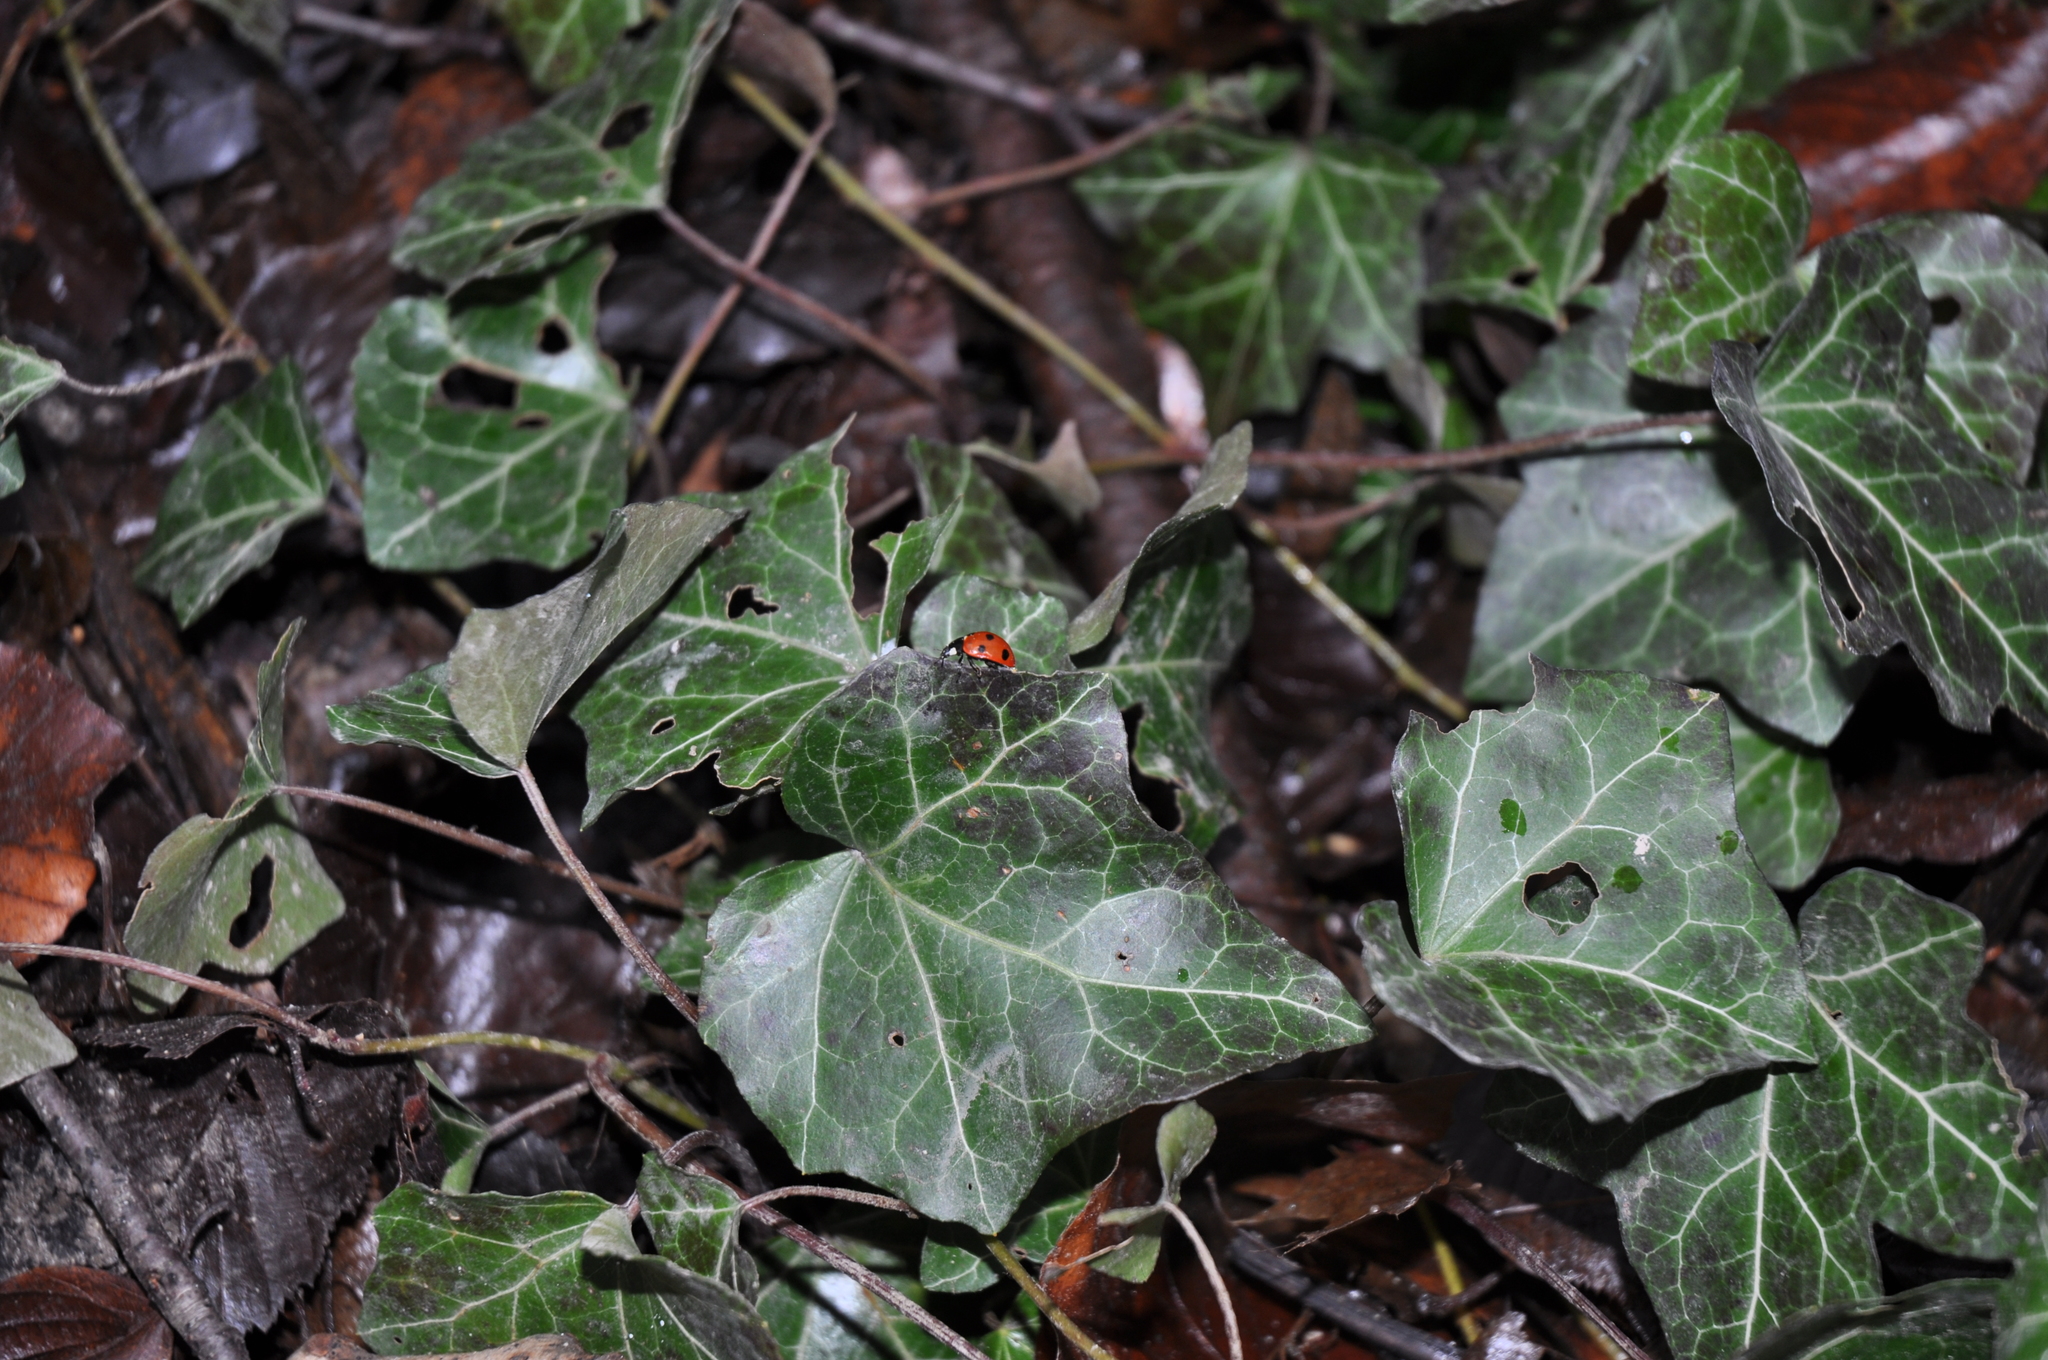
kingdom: Plantae
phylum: Tracheophyta
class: Magnoliopsida
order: Apiales
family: Araliaceae
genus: Hedera
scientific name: Hedera helix
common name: Ivy
